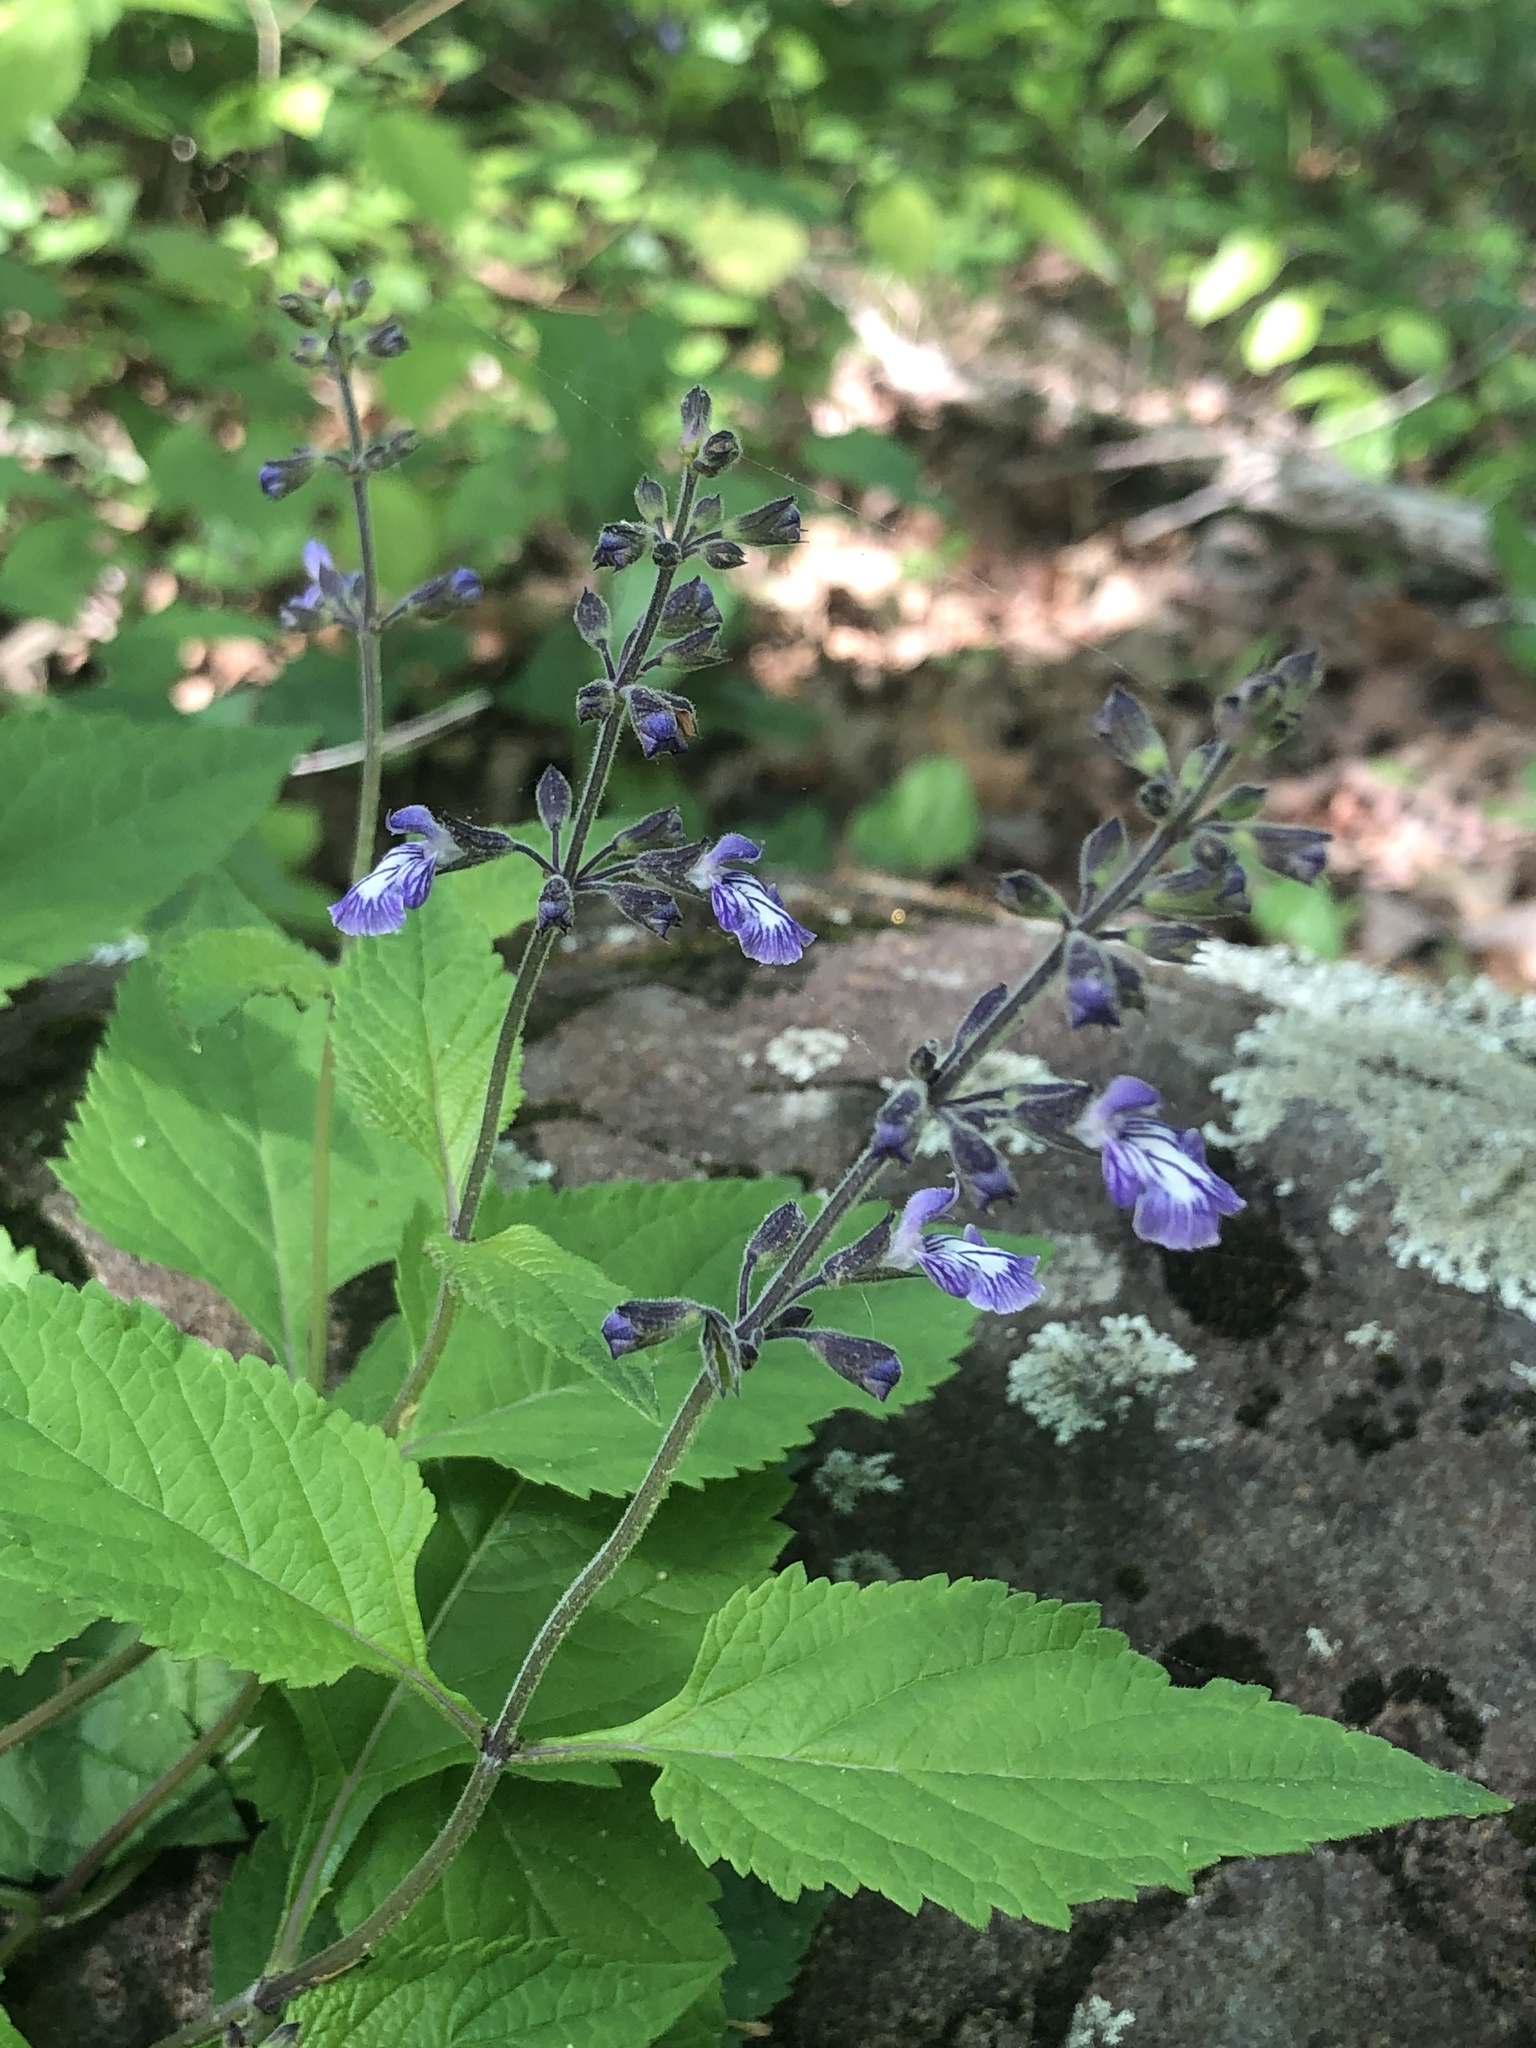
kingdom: Plantae
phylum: Tracheophyta
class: Magnoliopsida
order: Lamiales
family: Lamiaceae
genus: Salvia
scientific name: Salvia urticifolia
